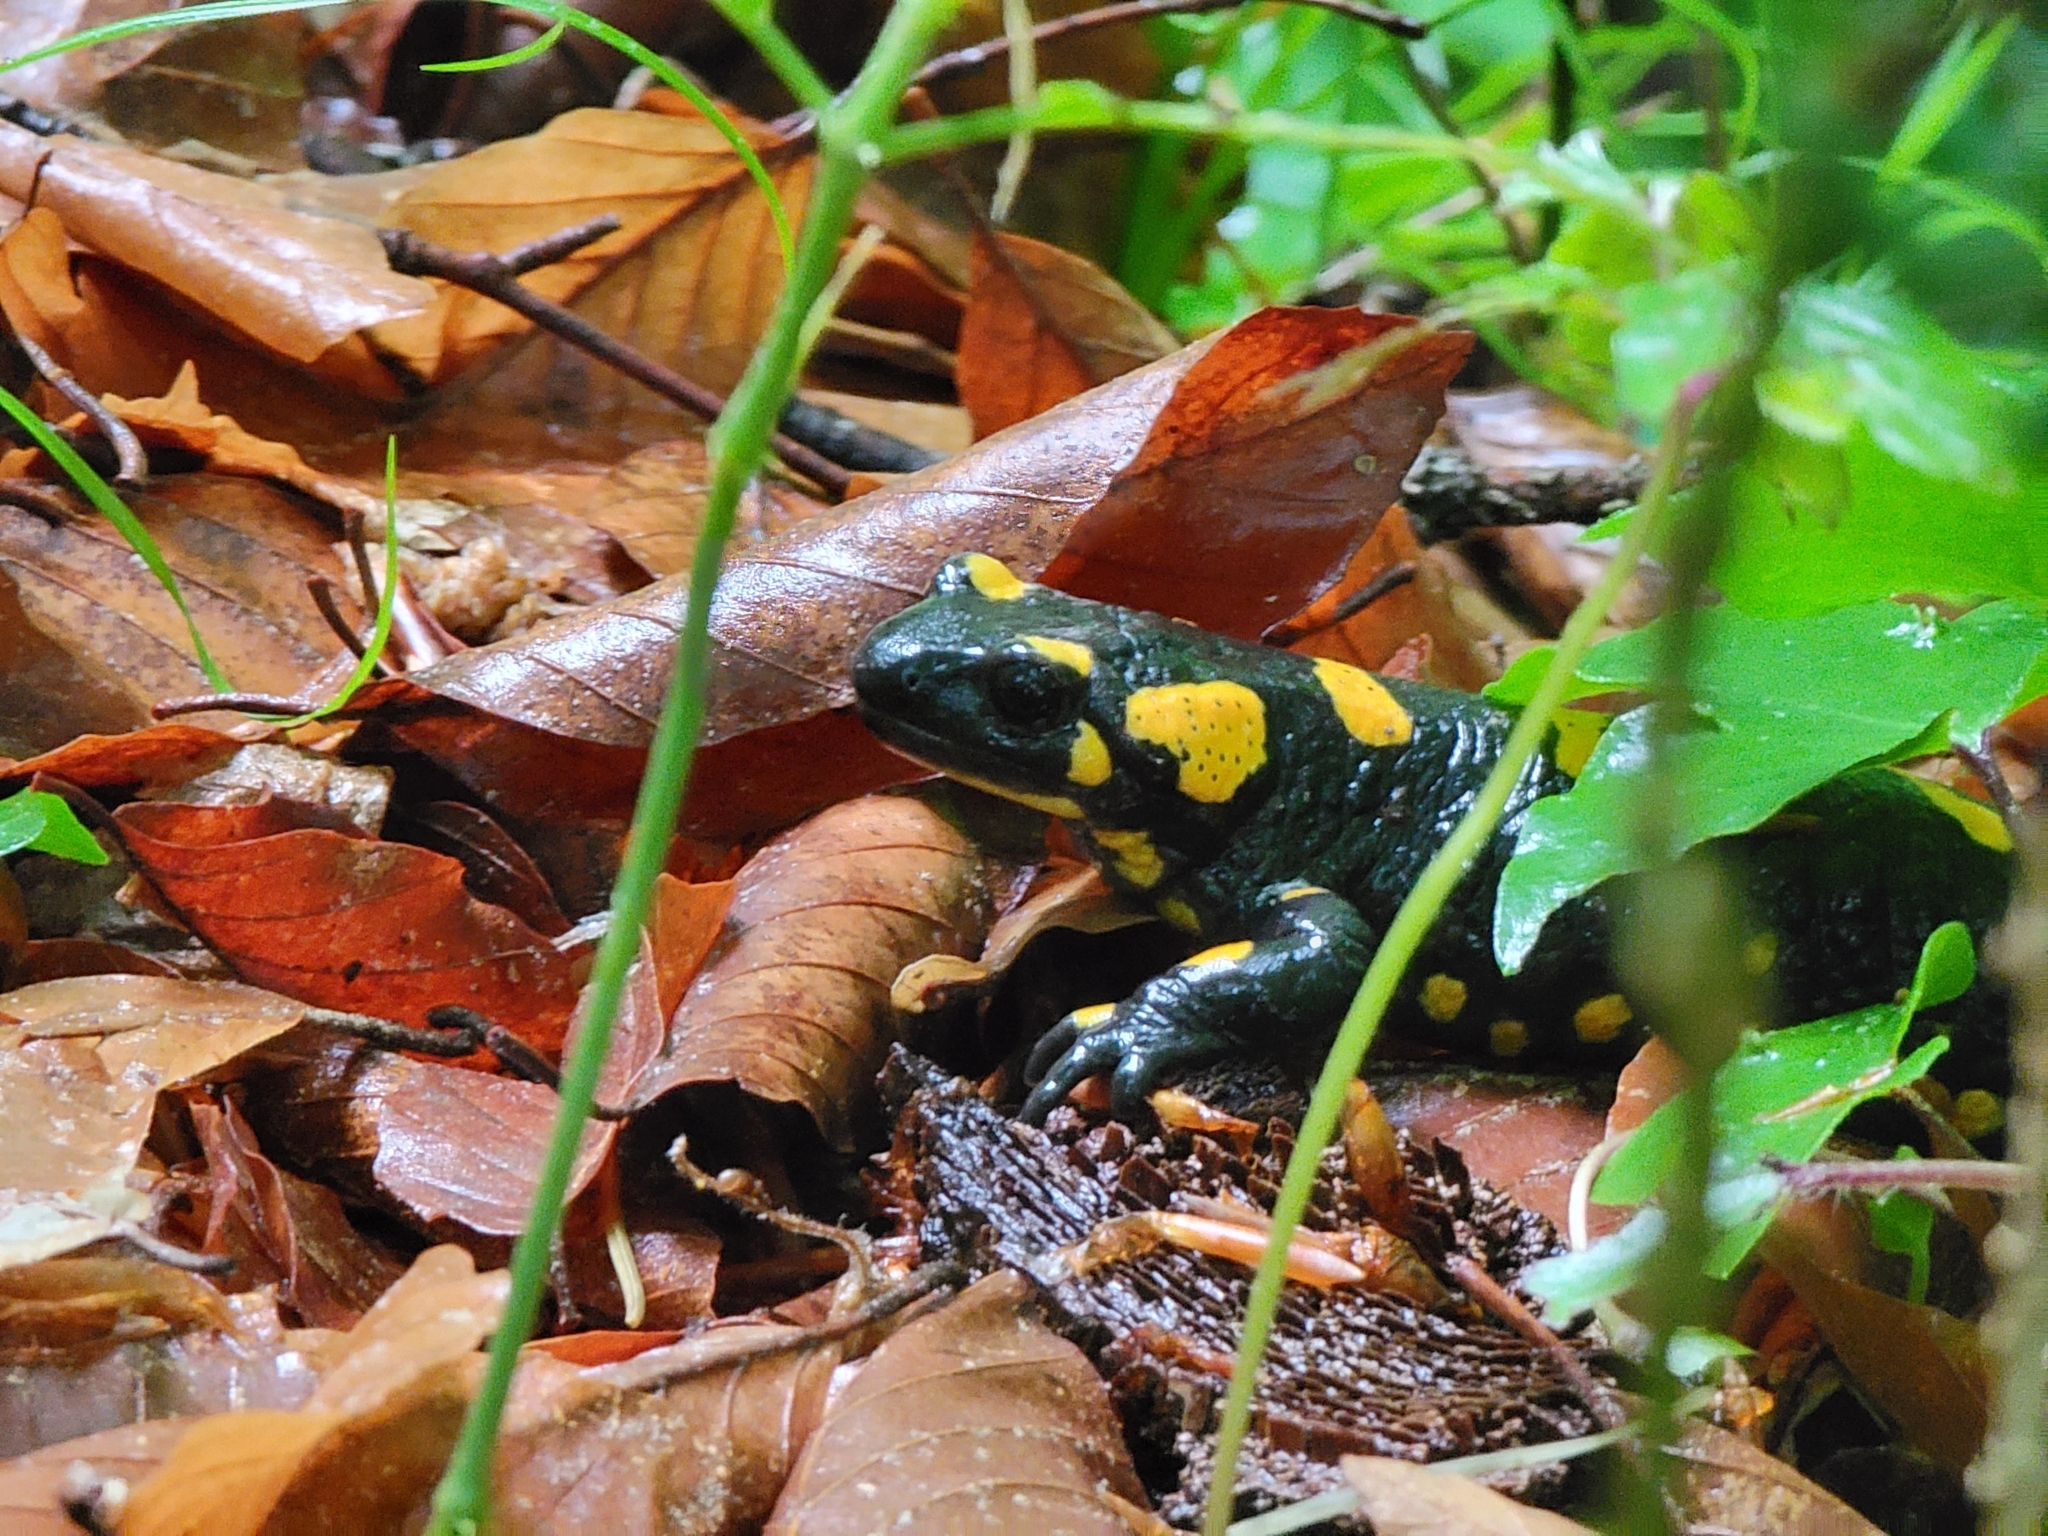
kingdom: Animalia
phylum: Chordata
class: Amphibia
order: Caudata
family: Salamandridae
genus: Salamandra
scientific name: Salamandra salamandra
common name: Fire salamander
